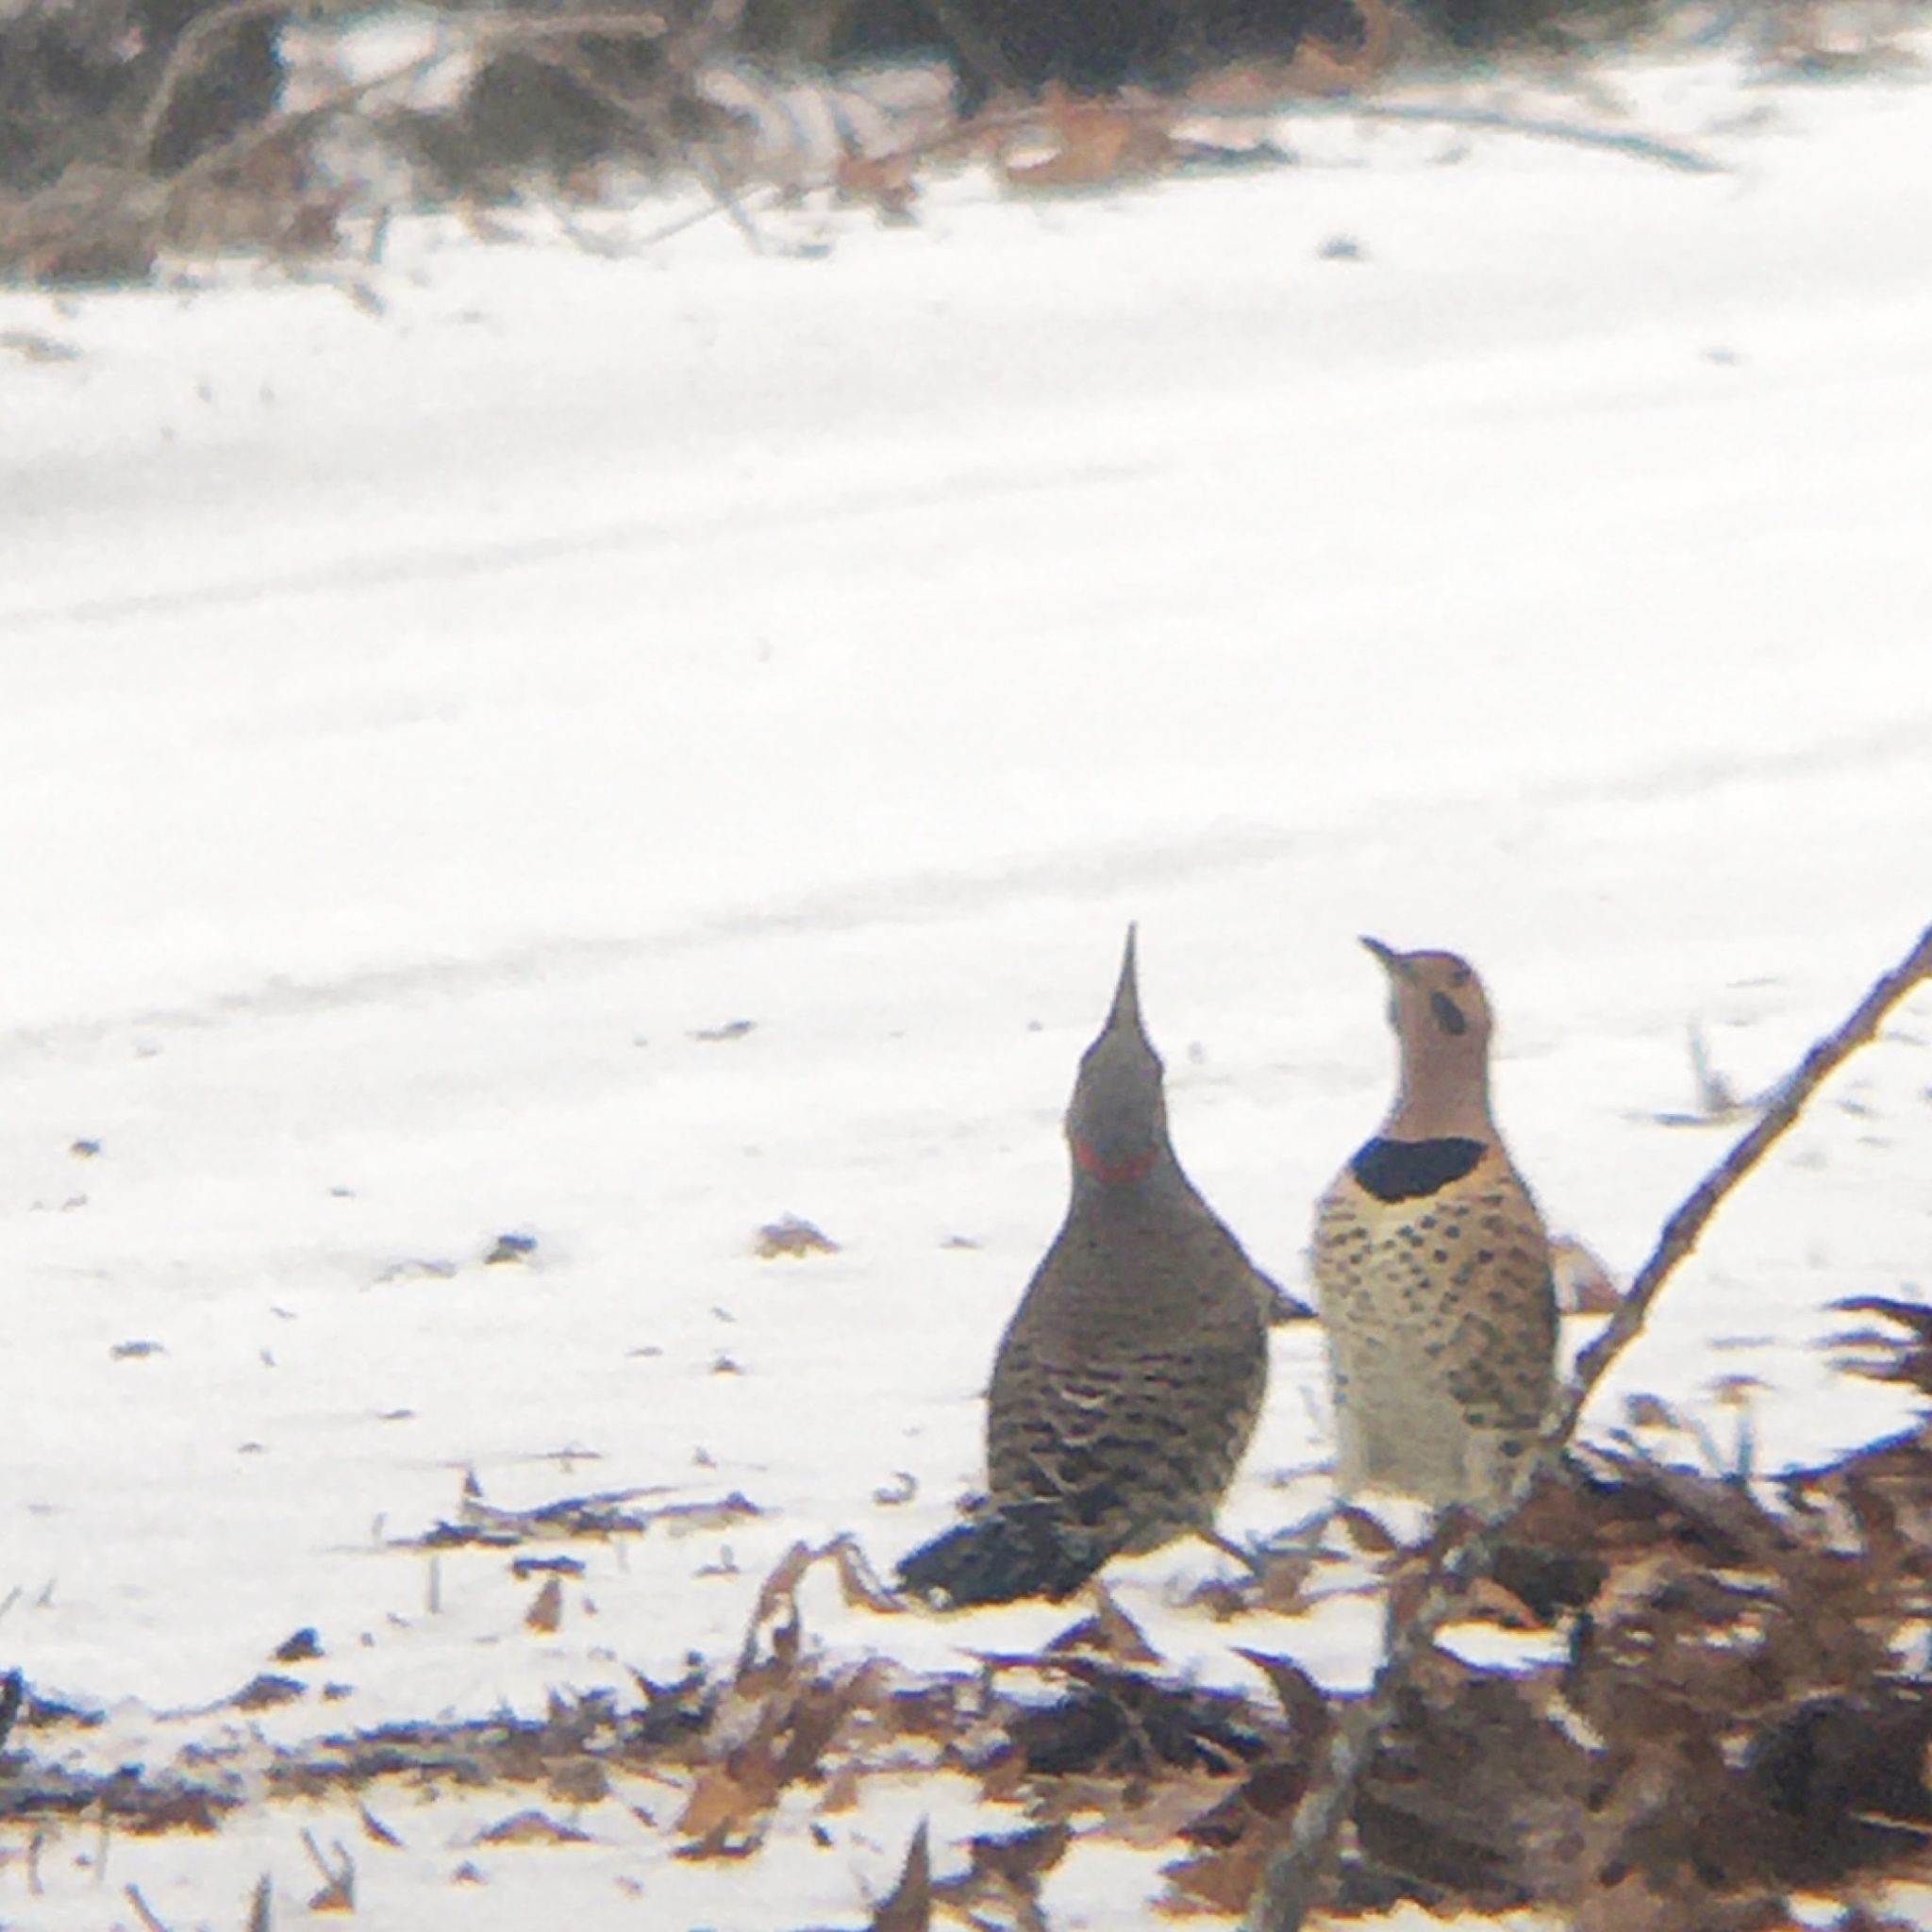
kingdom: Animalia
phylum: Chordata
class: Aves
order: Piciformes
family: Picidae
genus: Colaptes
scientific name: Colaptes auratus
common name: Northern flicker
